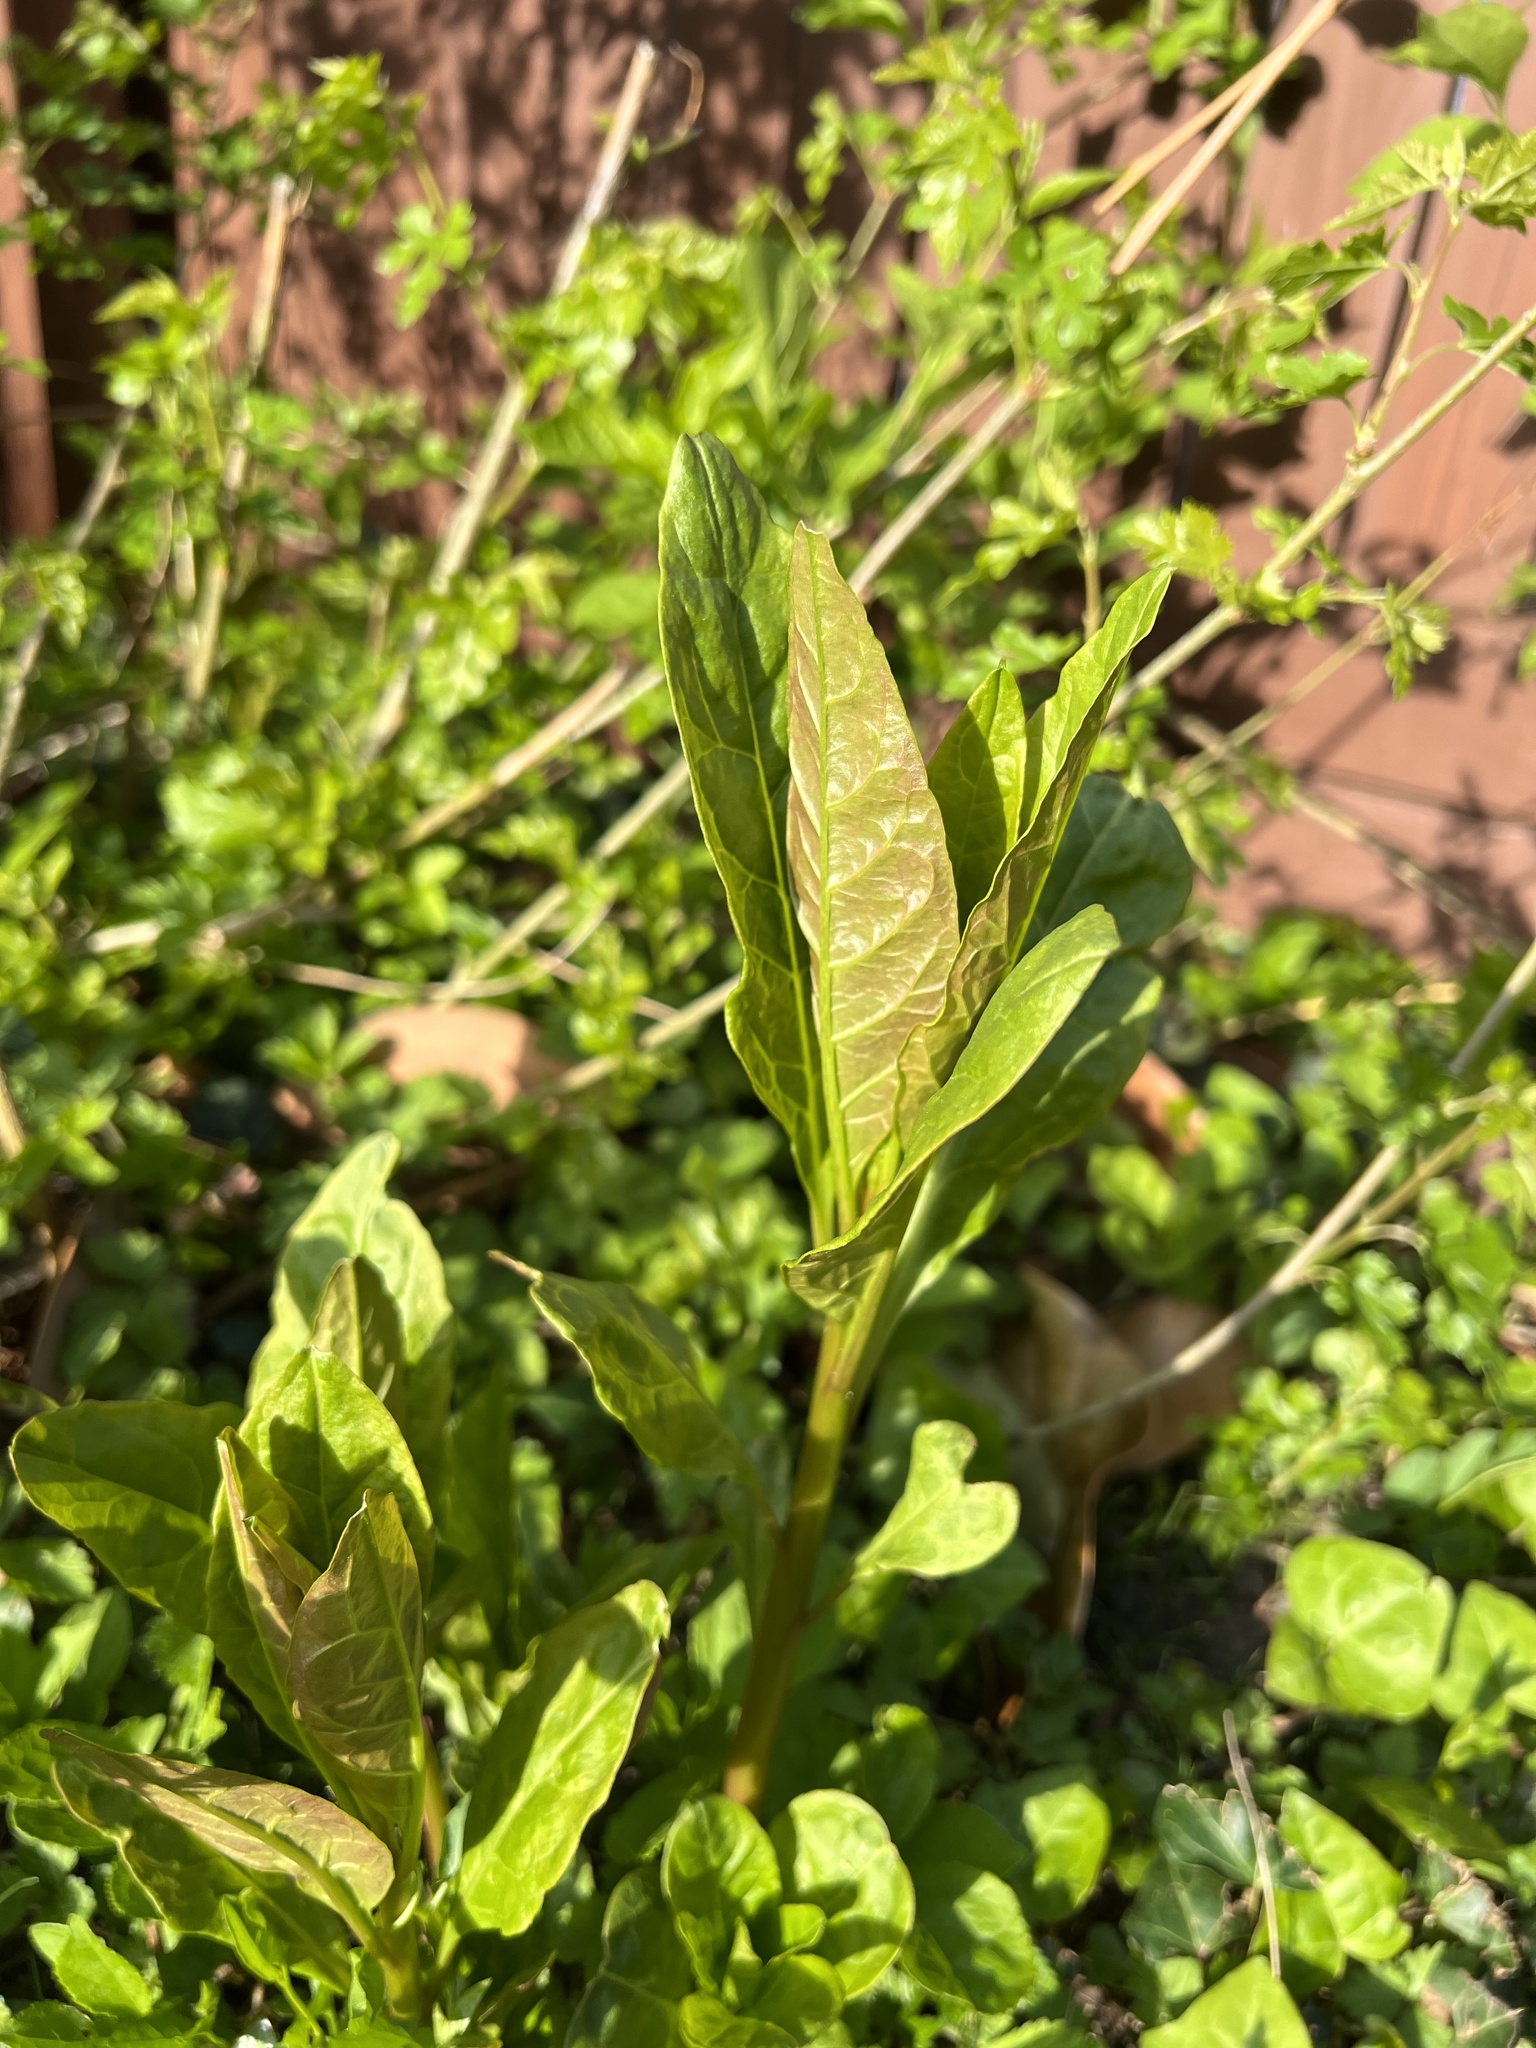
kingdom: Plantae
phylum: Tracheophyta
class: Magnoliopsida
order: Caryophyllales
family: Phytolaccaceae
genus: Phytolacca
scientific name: Phytolacca americana
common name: American pokeweed
